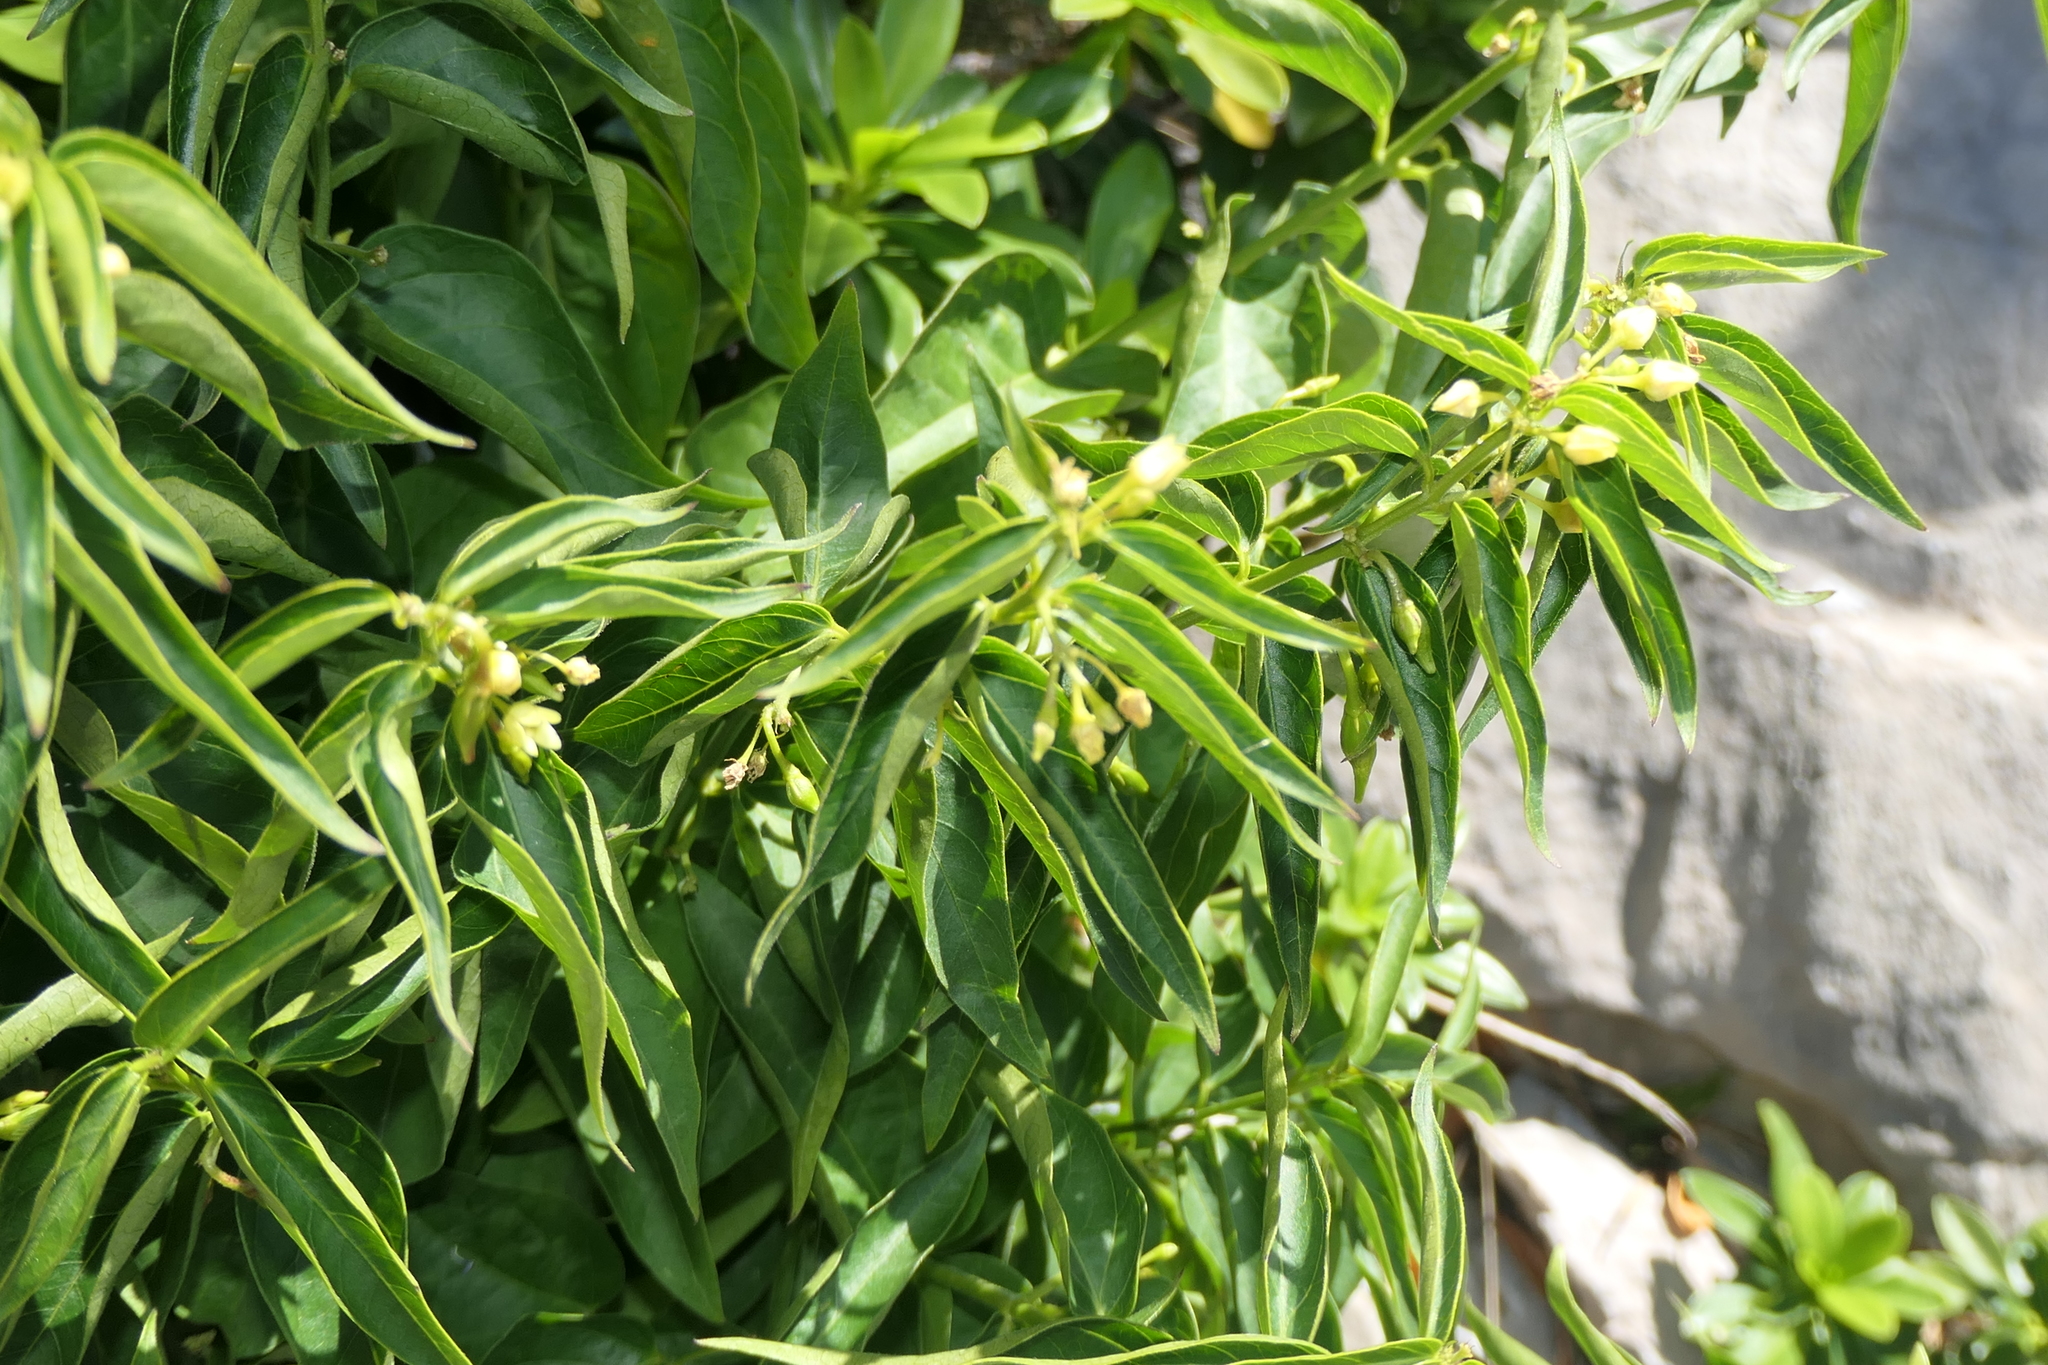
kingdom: Plantae
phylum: Tracheophyta
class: Magnoliopsida
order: Gentianales
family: Apocynaceae
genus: Vincetoxicum
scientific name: Vincetoxicum hirundinaria
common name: White swallowwort
